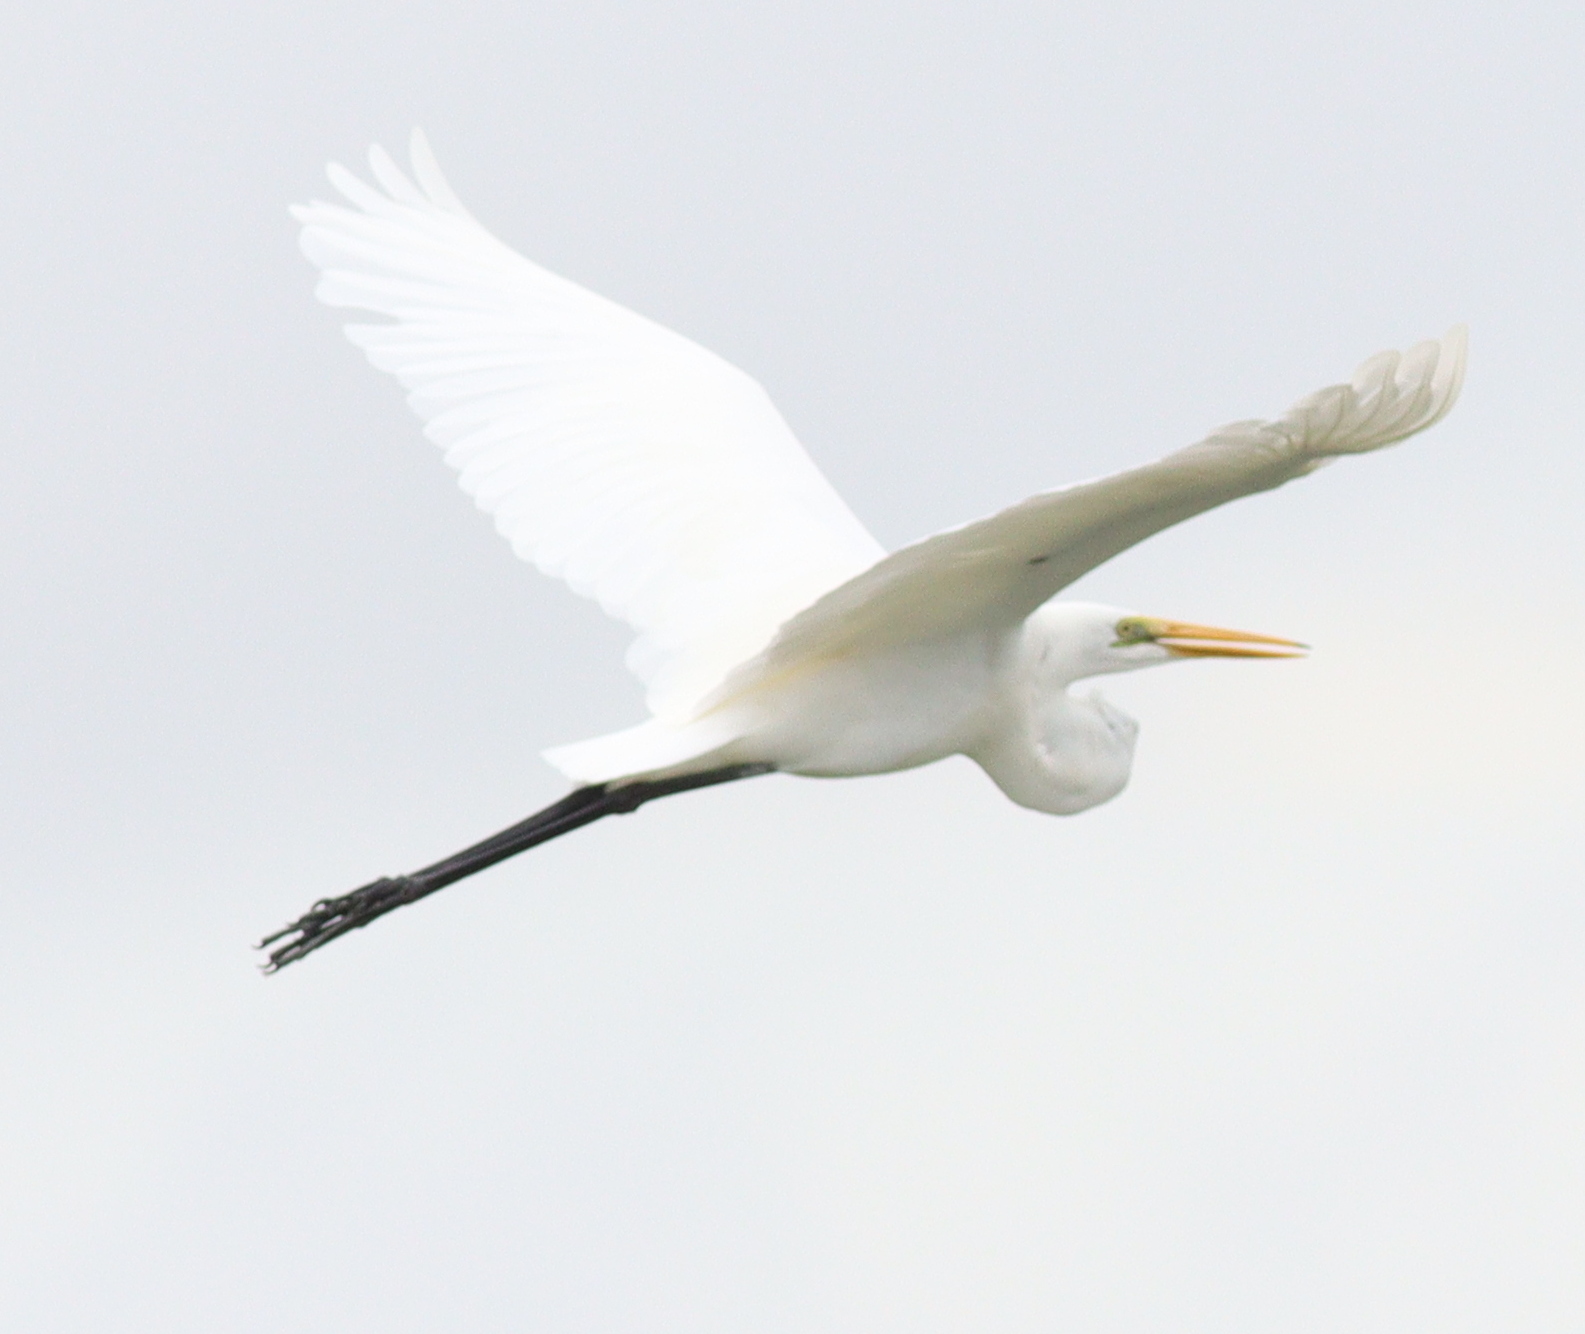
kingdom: Animalia
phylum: Chordata
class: Aves
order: Pelecaniformes
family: Ardeidae
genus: Ardea
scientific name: Ardea alba
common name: Great egret
